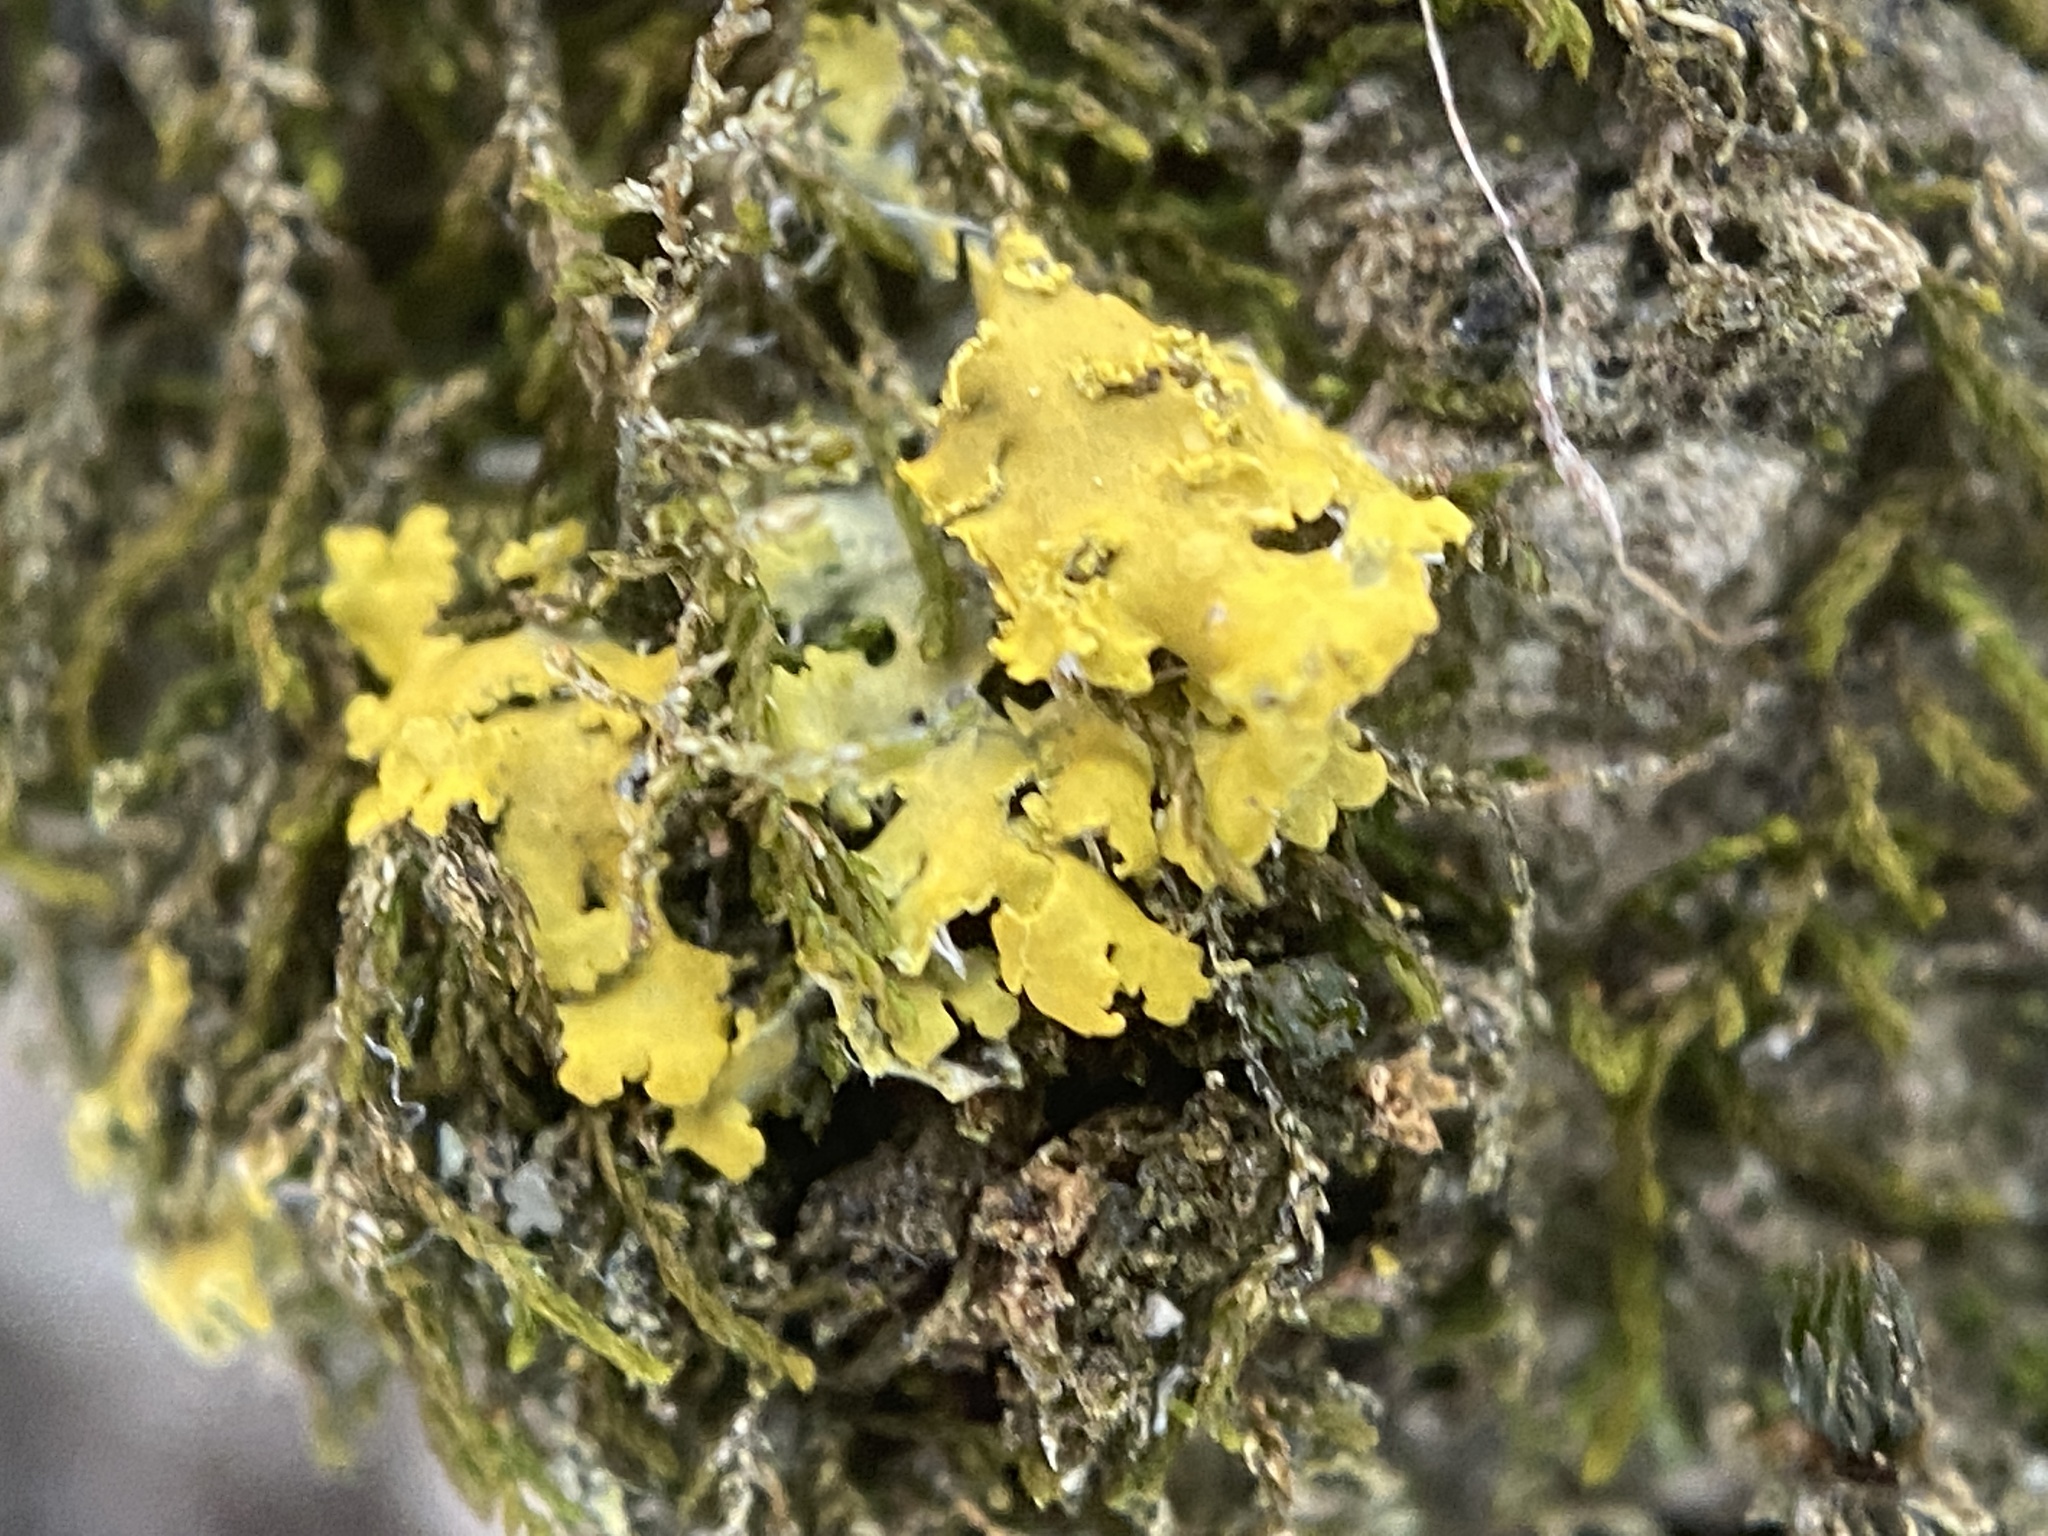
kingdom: Fungi
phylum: Ascomycota
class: Candelariomycetes
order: Candelariales
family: Candelariaceae
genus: Candelaria
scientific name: Candelaria concolor
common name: Candleflame lichen
